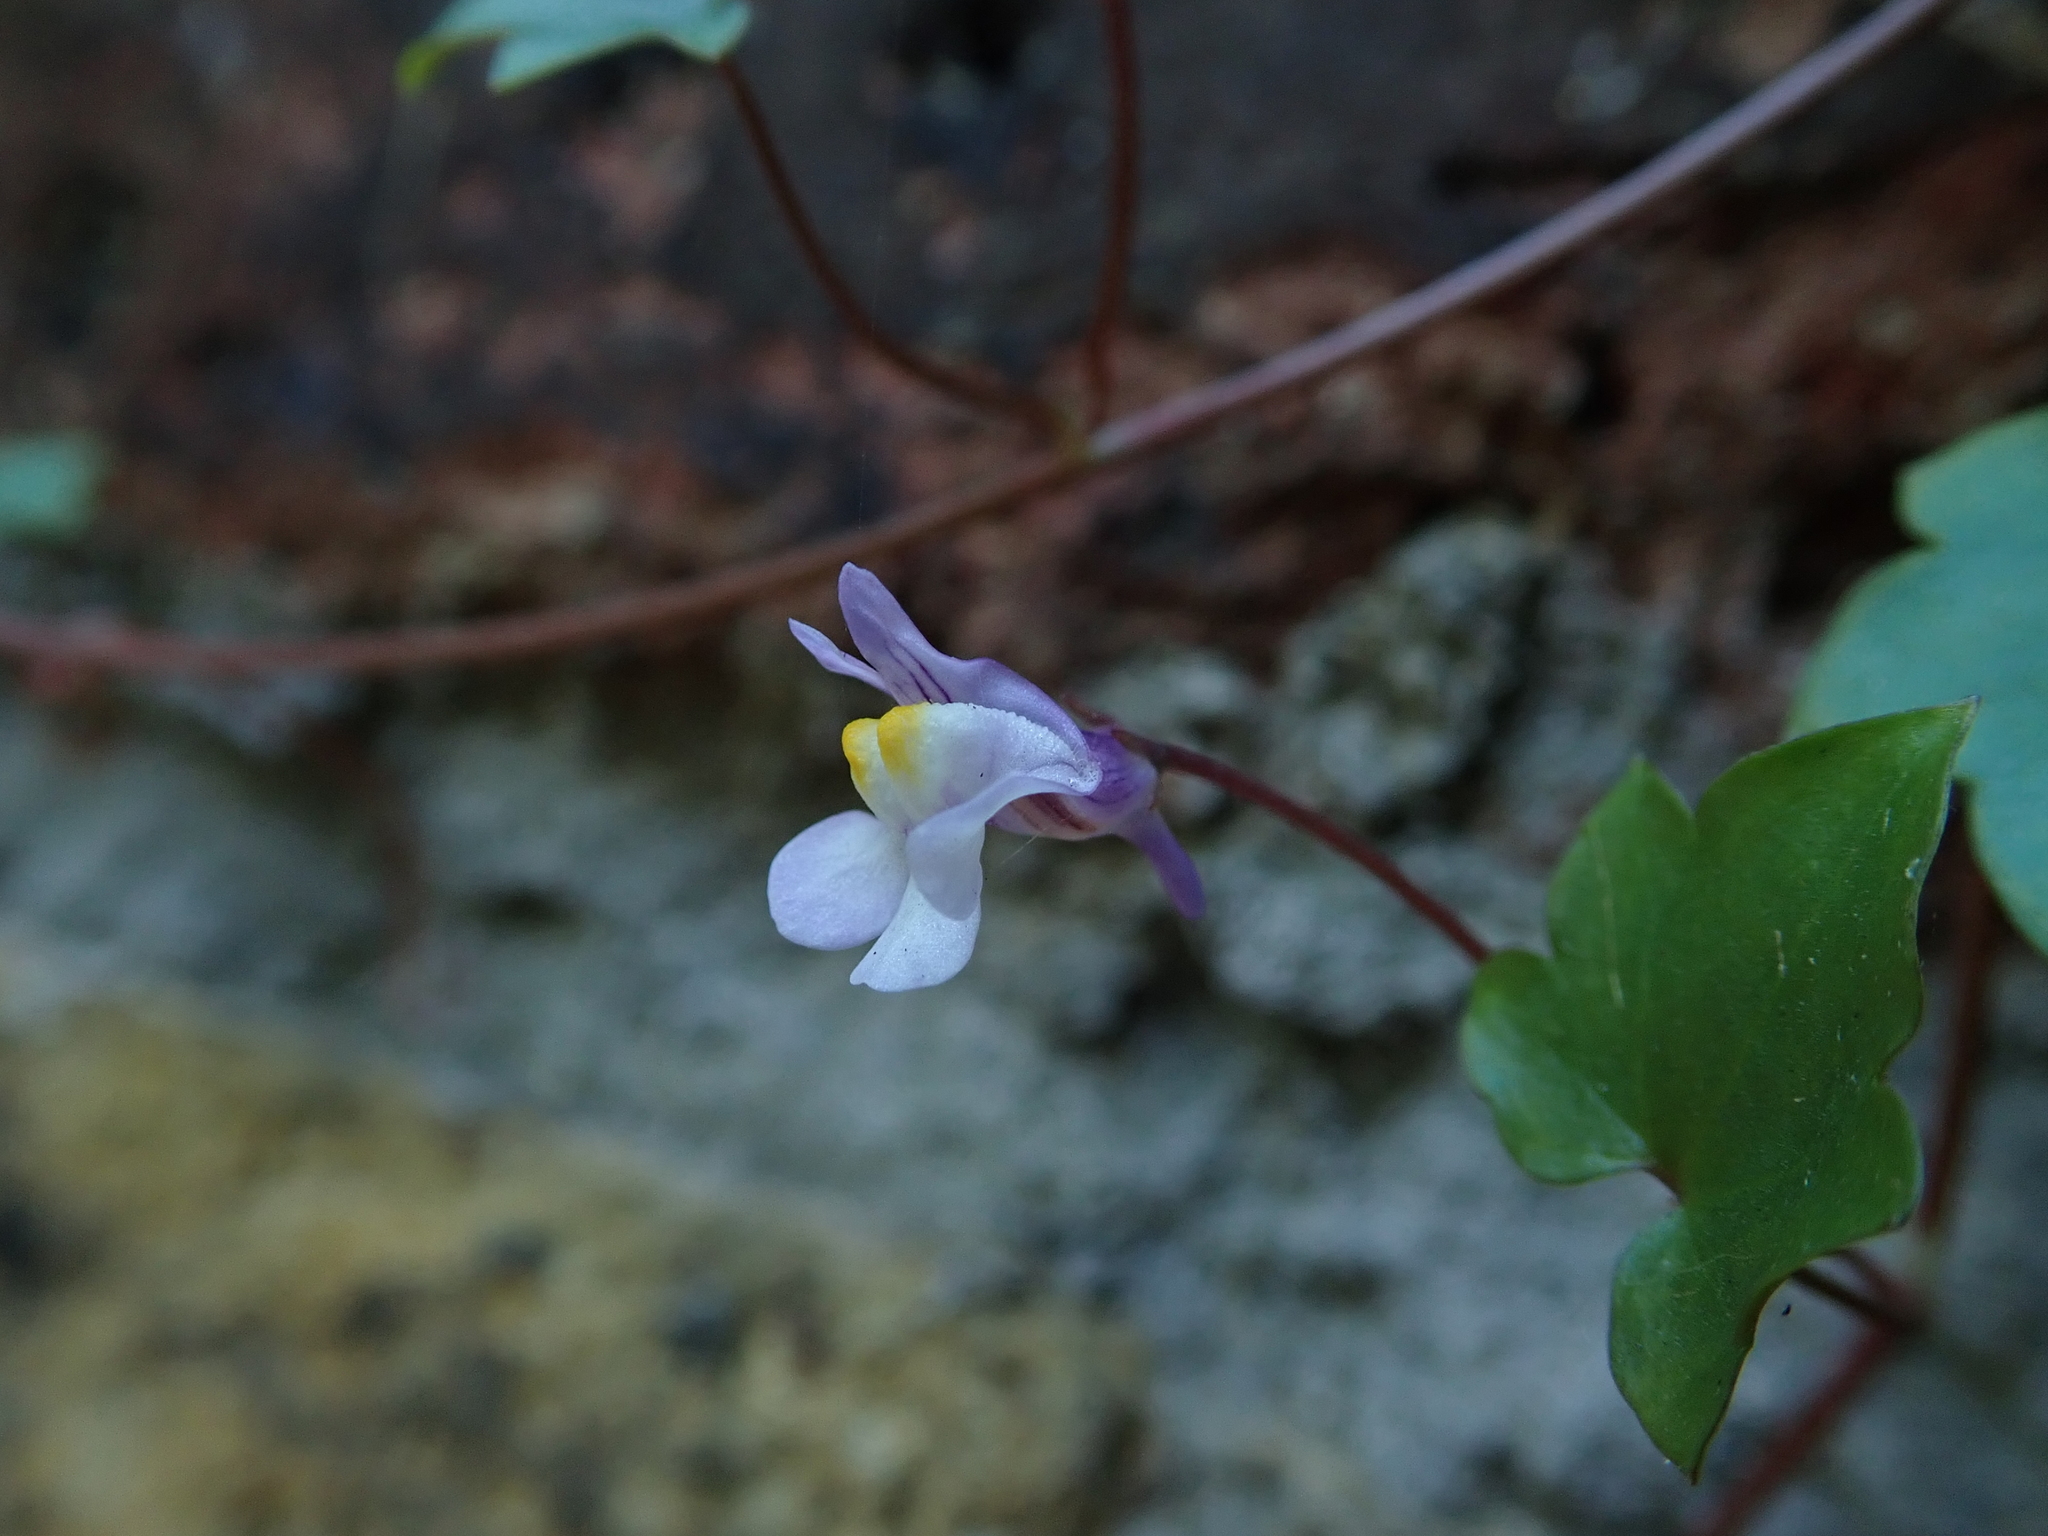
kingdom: Plantae
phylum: Tracheophyta
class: Magnoliopsida
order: Lamiales
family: Plantaginaceae
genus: Cymbalaria
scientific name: Cymbalaria muralis
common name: Ivy-leaved toadflax
